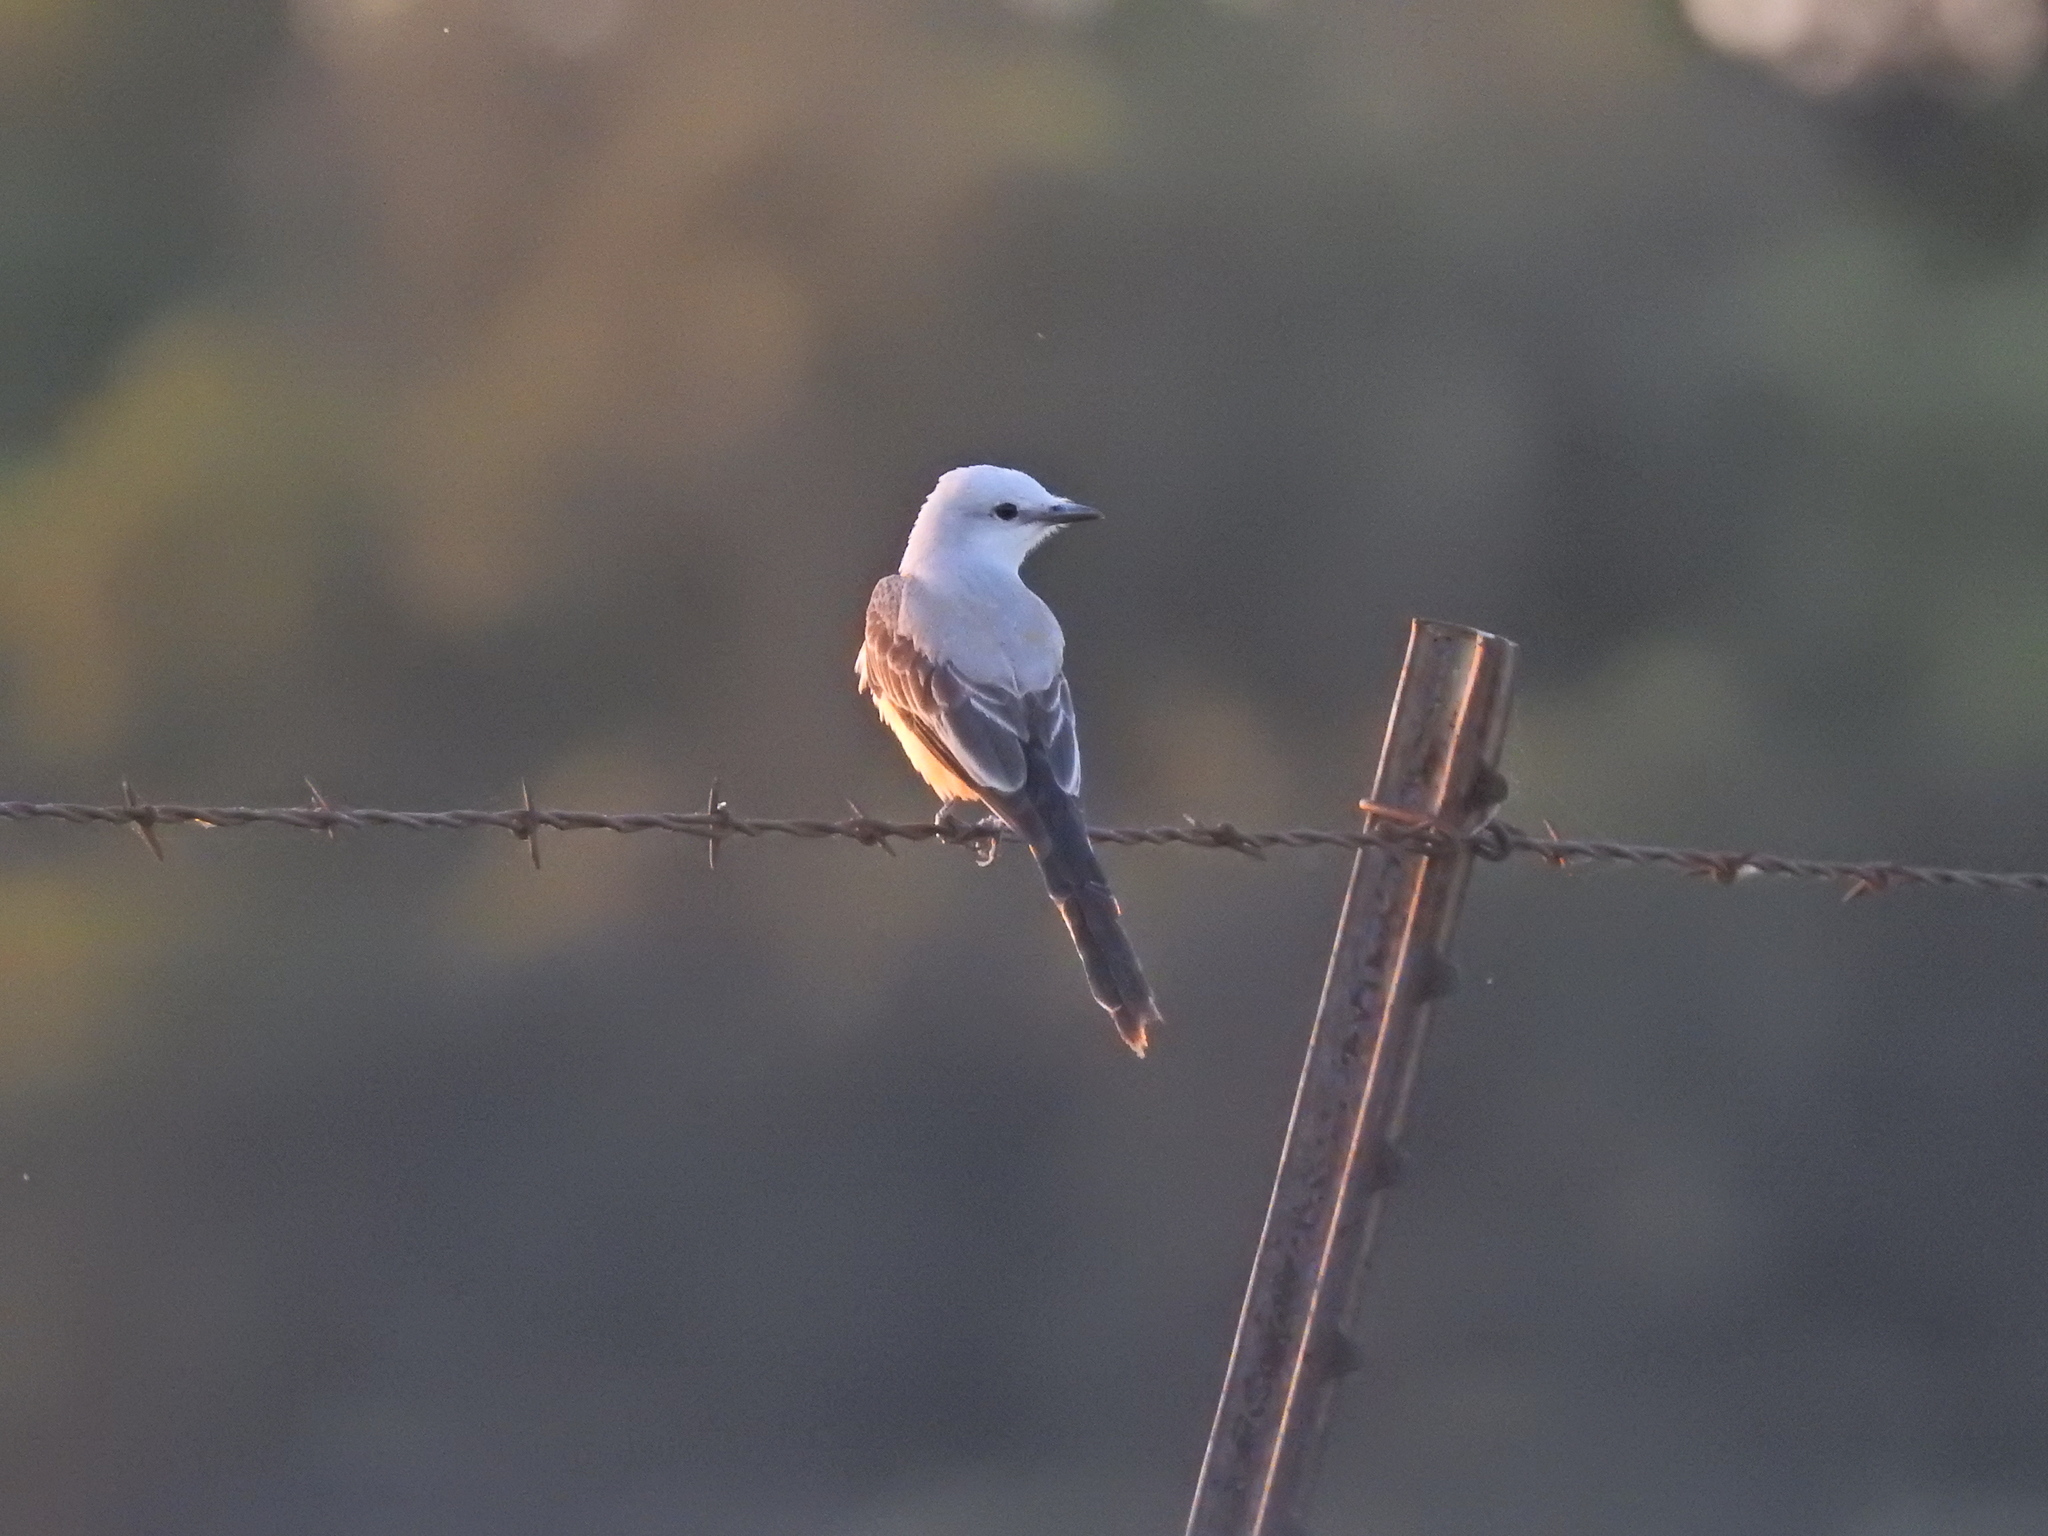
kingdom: Animalia
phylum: Chordata
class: Aves
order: Passeriformes
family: Tyrannidae
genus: Tyrannus
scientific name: Tyrannus forficatus
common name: Scissor-tailed flycatcher
